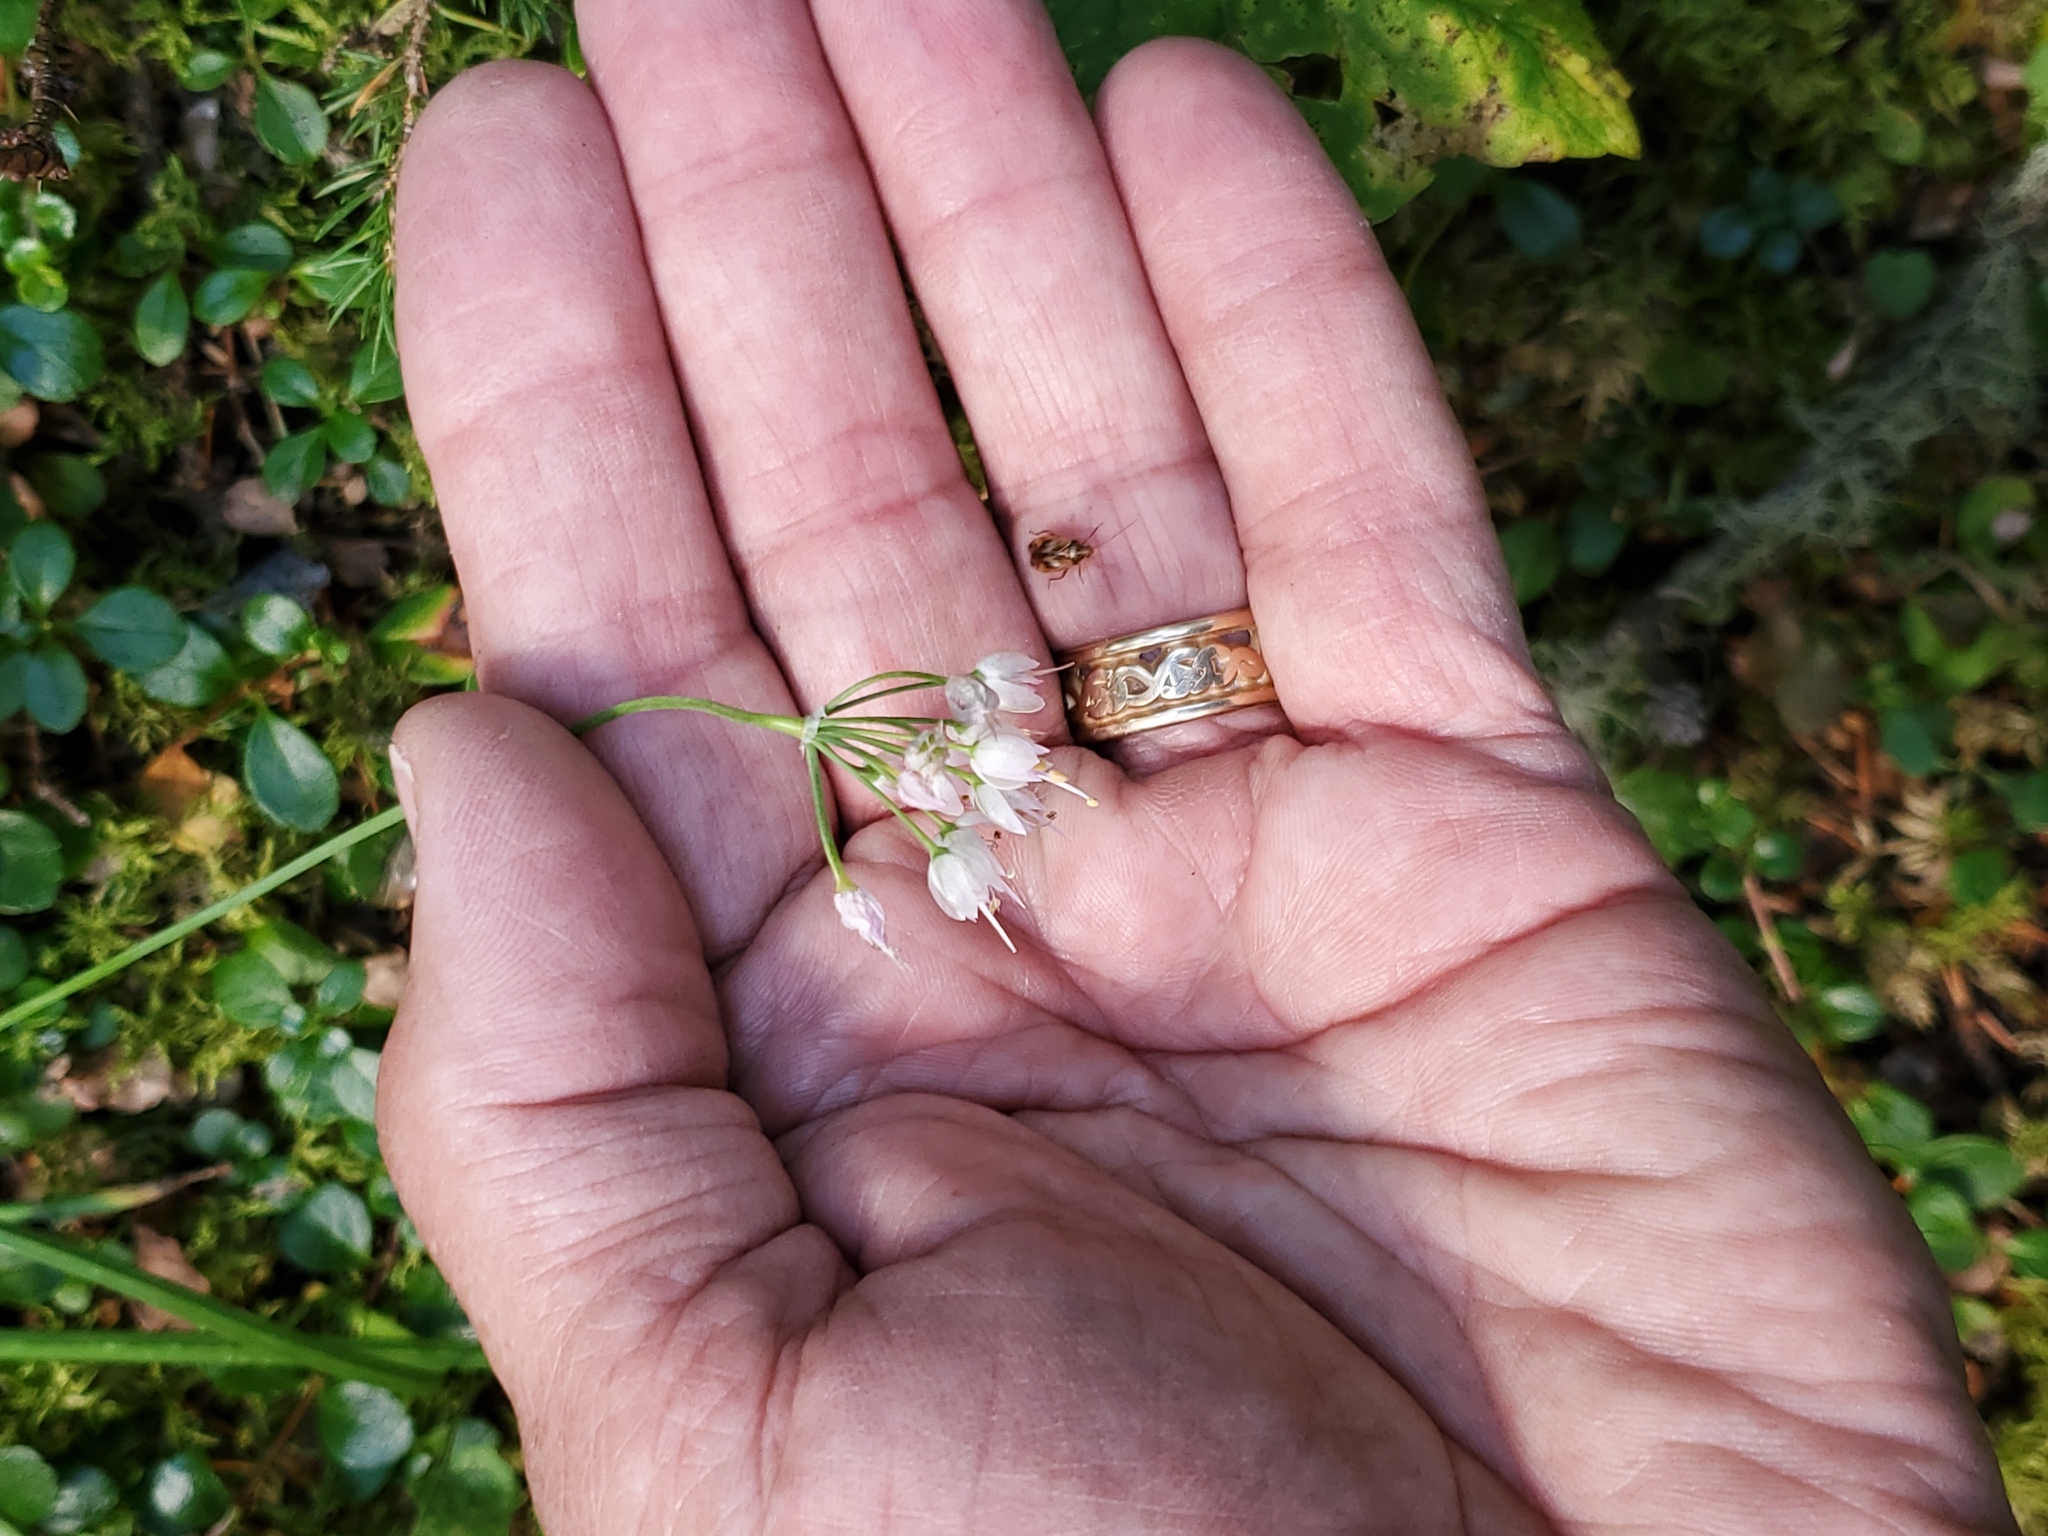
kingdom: Plantae
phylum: Tracheophyta
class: Liliopsida
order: Asparagales
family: Amaryllidaceae
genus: Allium
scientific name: Allium cernuum
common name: Nodding onion
